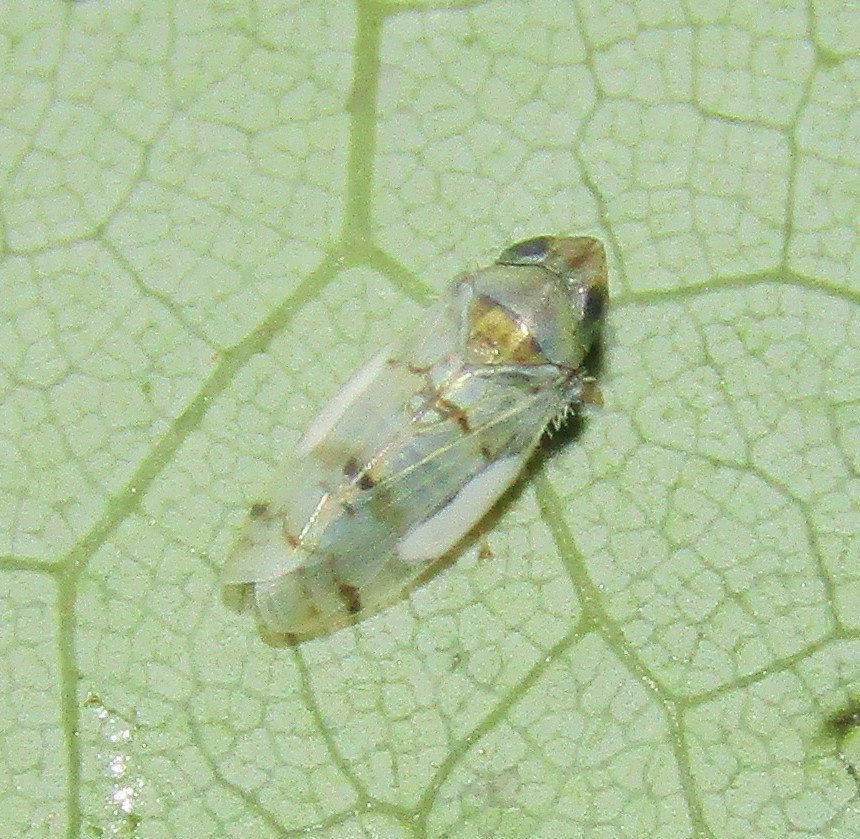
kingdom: Animalia
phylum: Arthropoda
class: Insecta
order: Hemiptera
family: Cicadellidae
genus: Japananus
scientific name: Japananus hyalinus
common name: The japanese maple leafhopper
